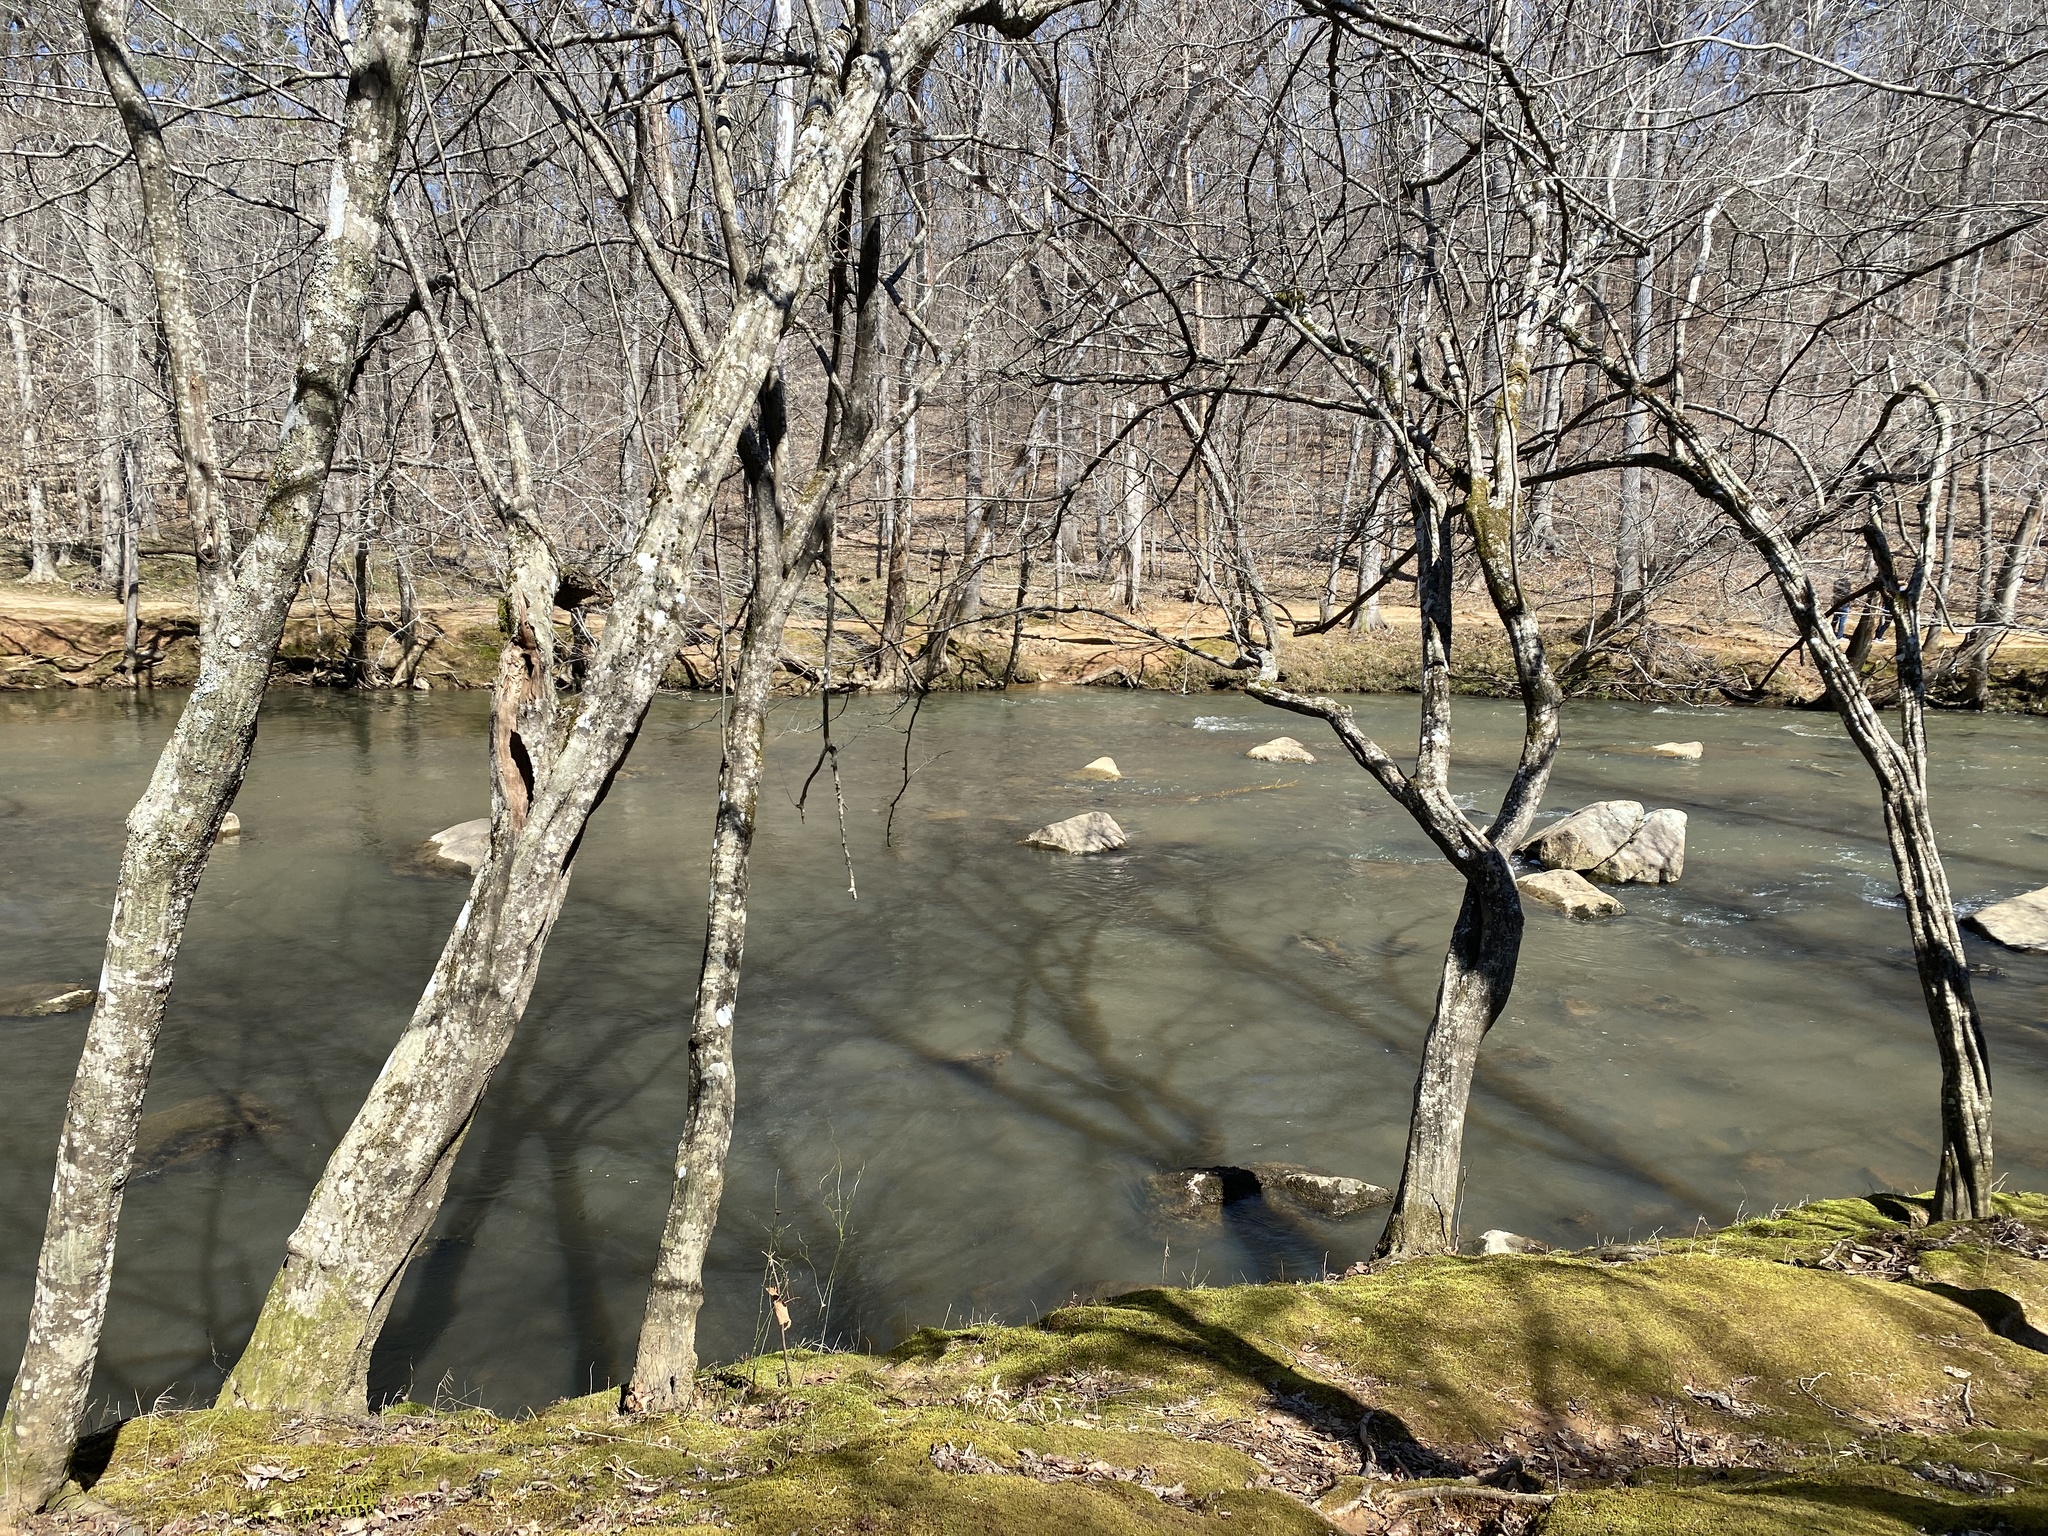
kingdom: Plantae
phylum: Tracheophyta
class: Magnoliopsida
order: Fagales
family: Betulaceae
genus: Carpinus
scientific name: Carpinus caroliniana
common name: American hornbeam
